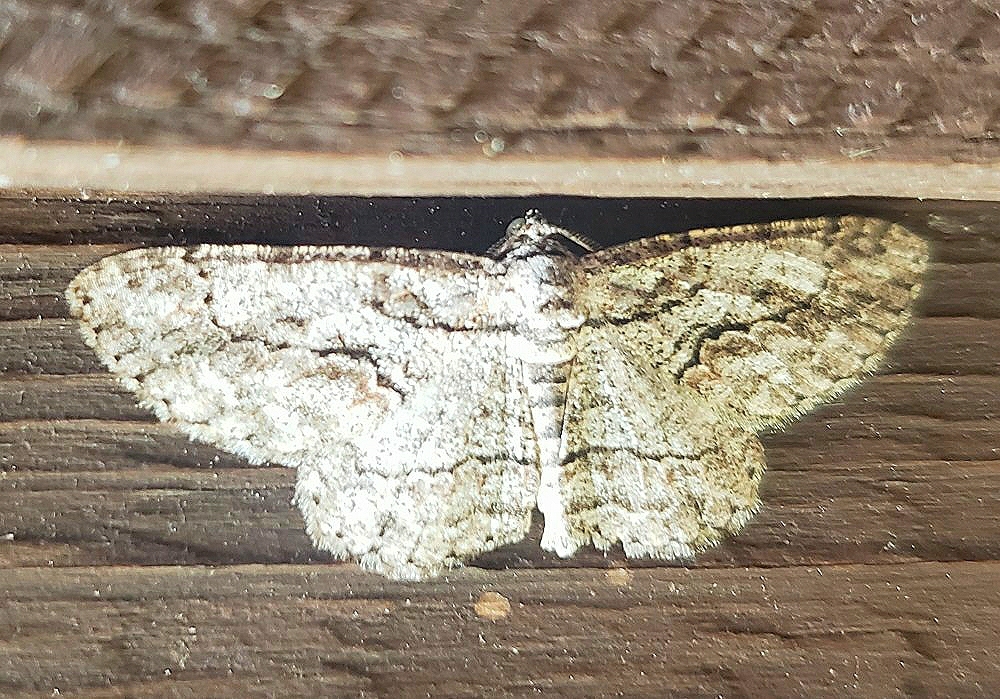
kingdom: Animalia
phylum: Arthropoda
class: Insecta
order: Lepidoptera
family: Geometridae
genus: Anavitrinella
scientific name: Anavitrinella pampinaria
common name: Common gray
